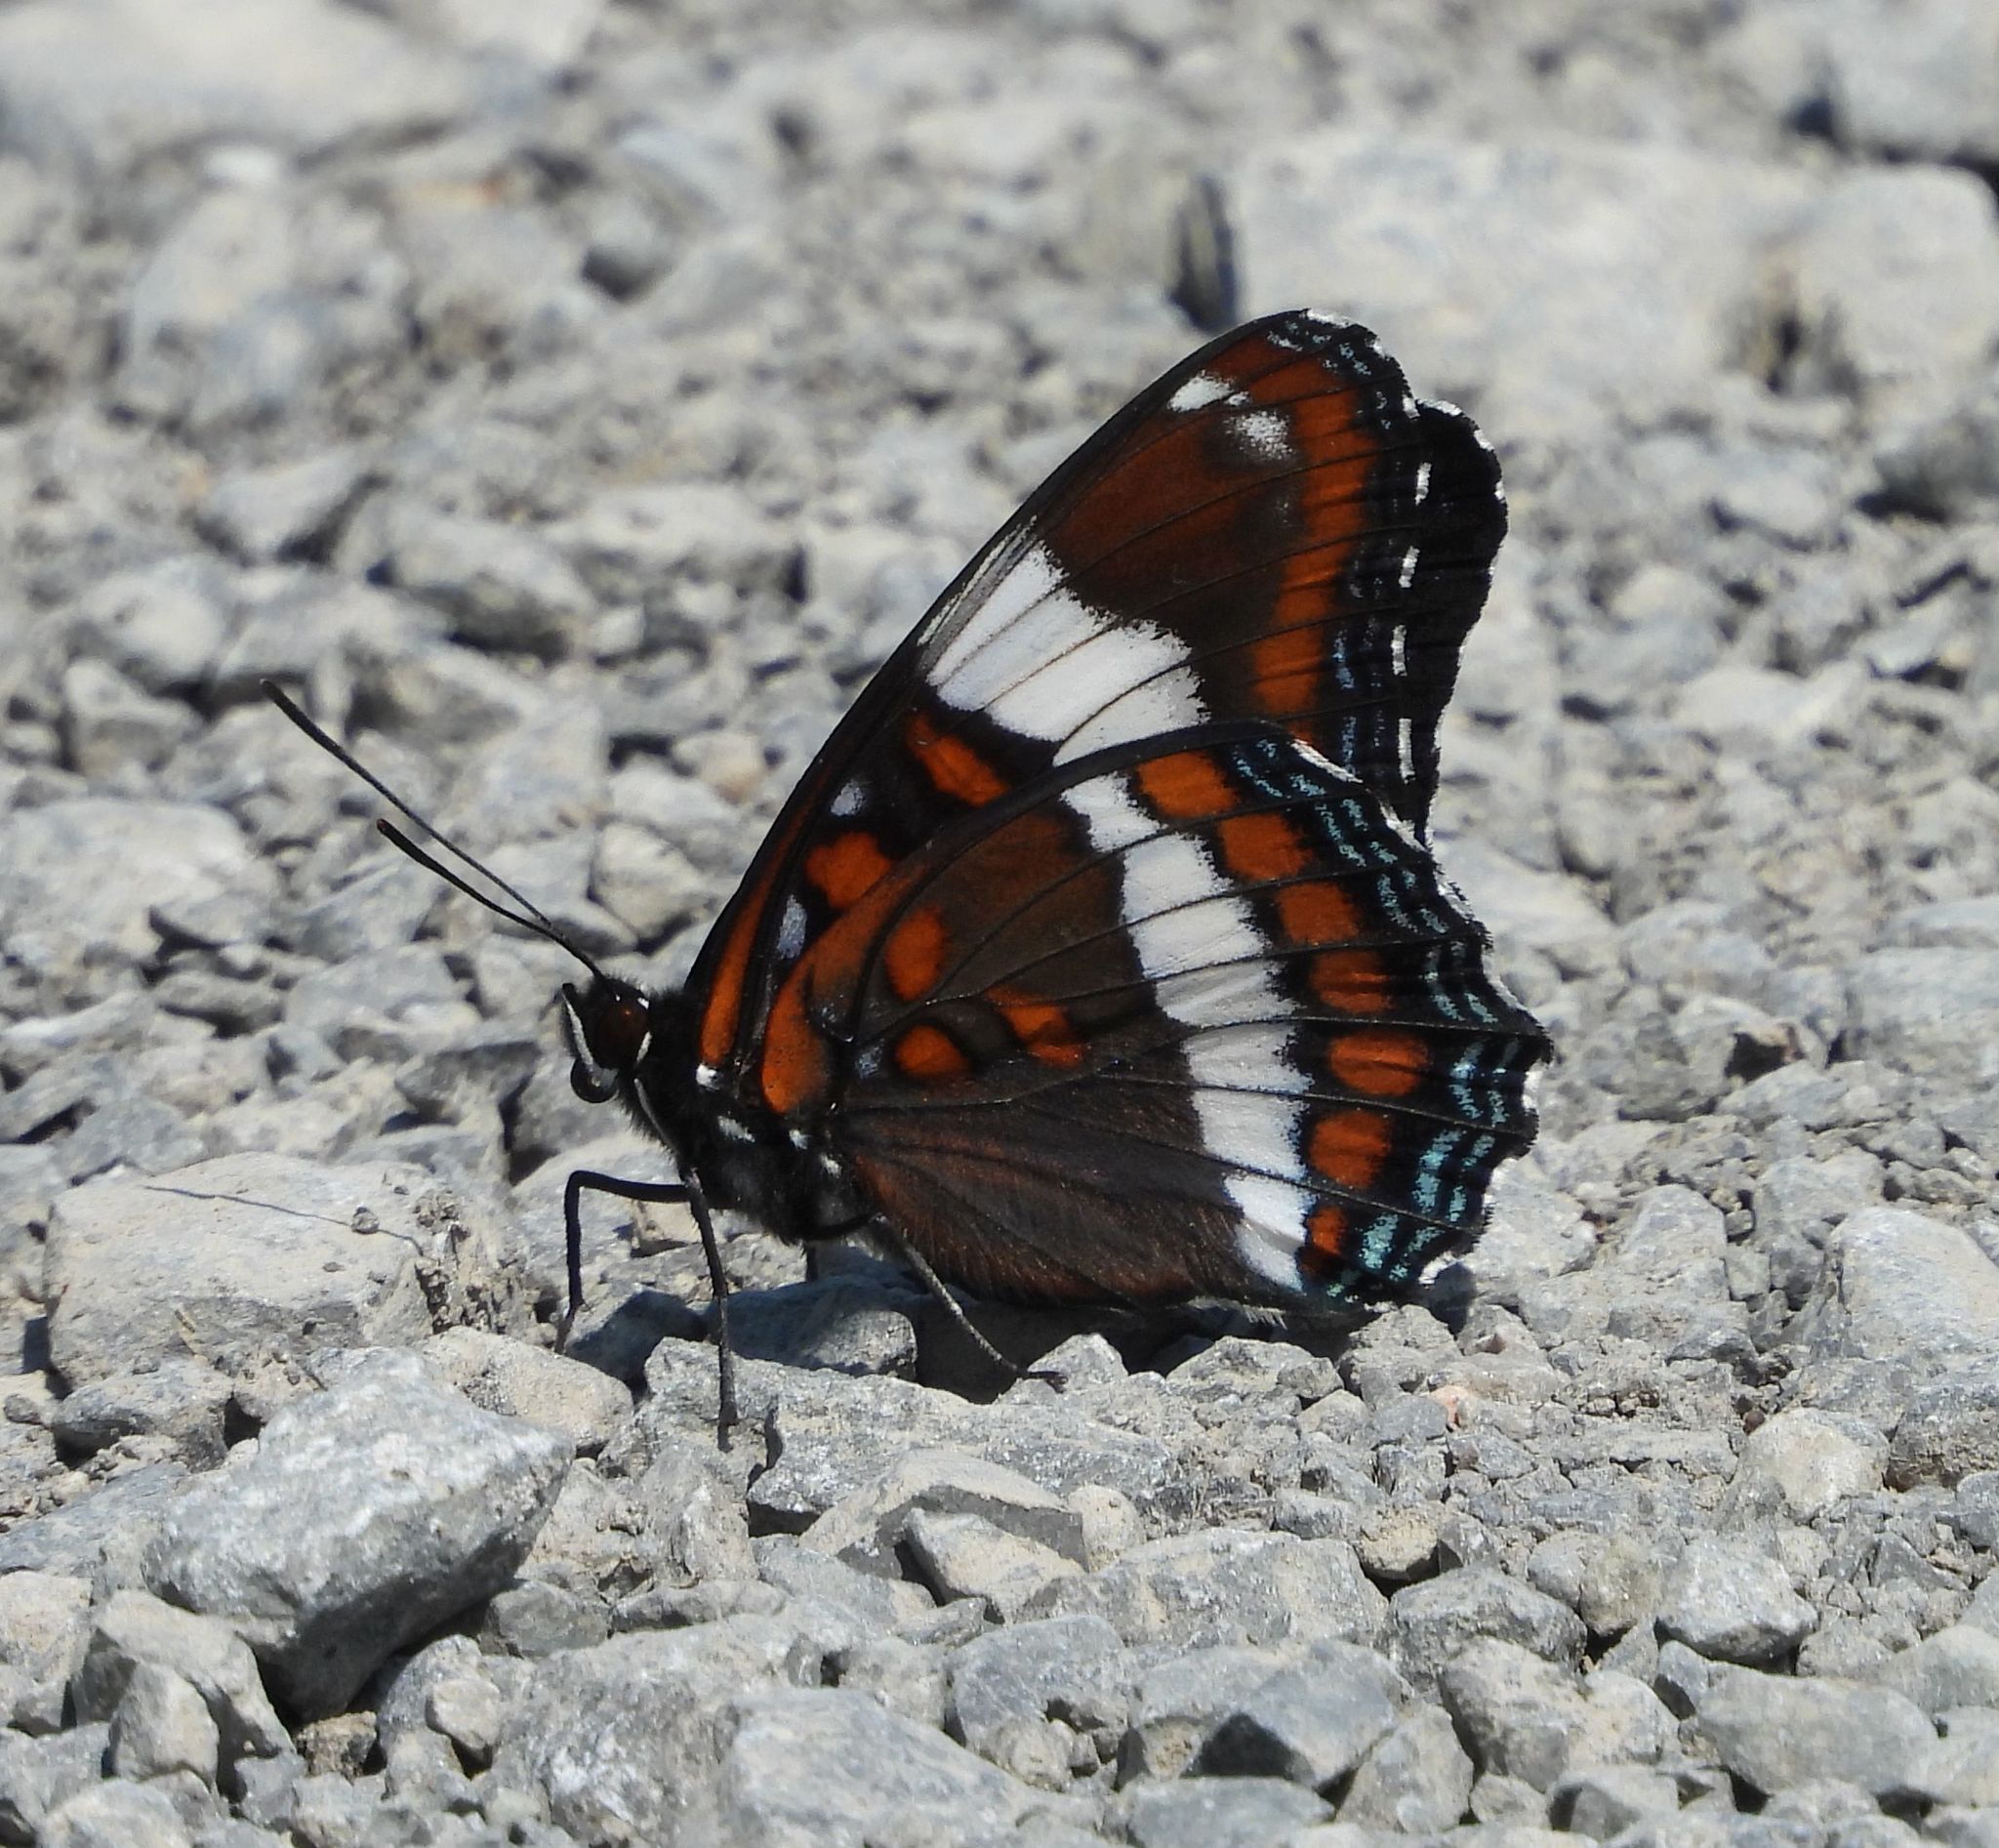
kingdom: Animalia
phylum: Arthropoda
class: Insecta
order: Lepidoptera
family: Nymphalidae
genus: Limenitis
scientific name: Limenitis arthemis
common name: Red-spotted admiral
